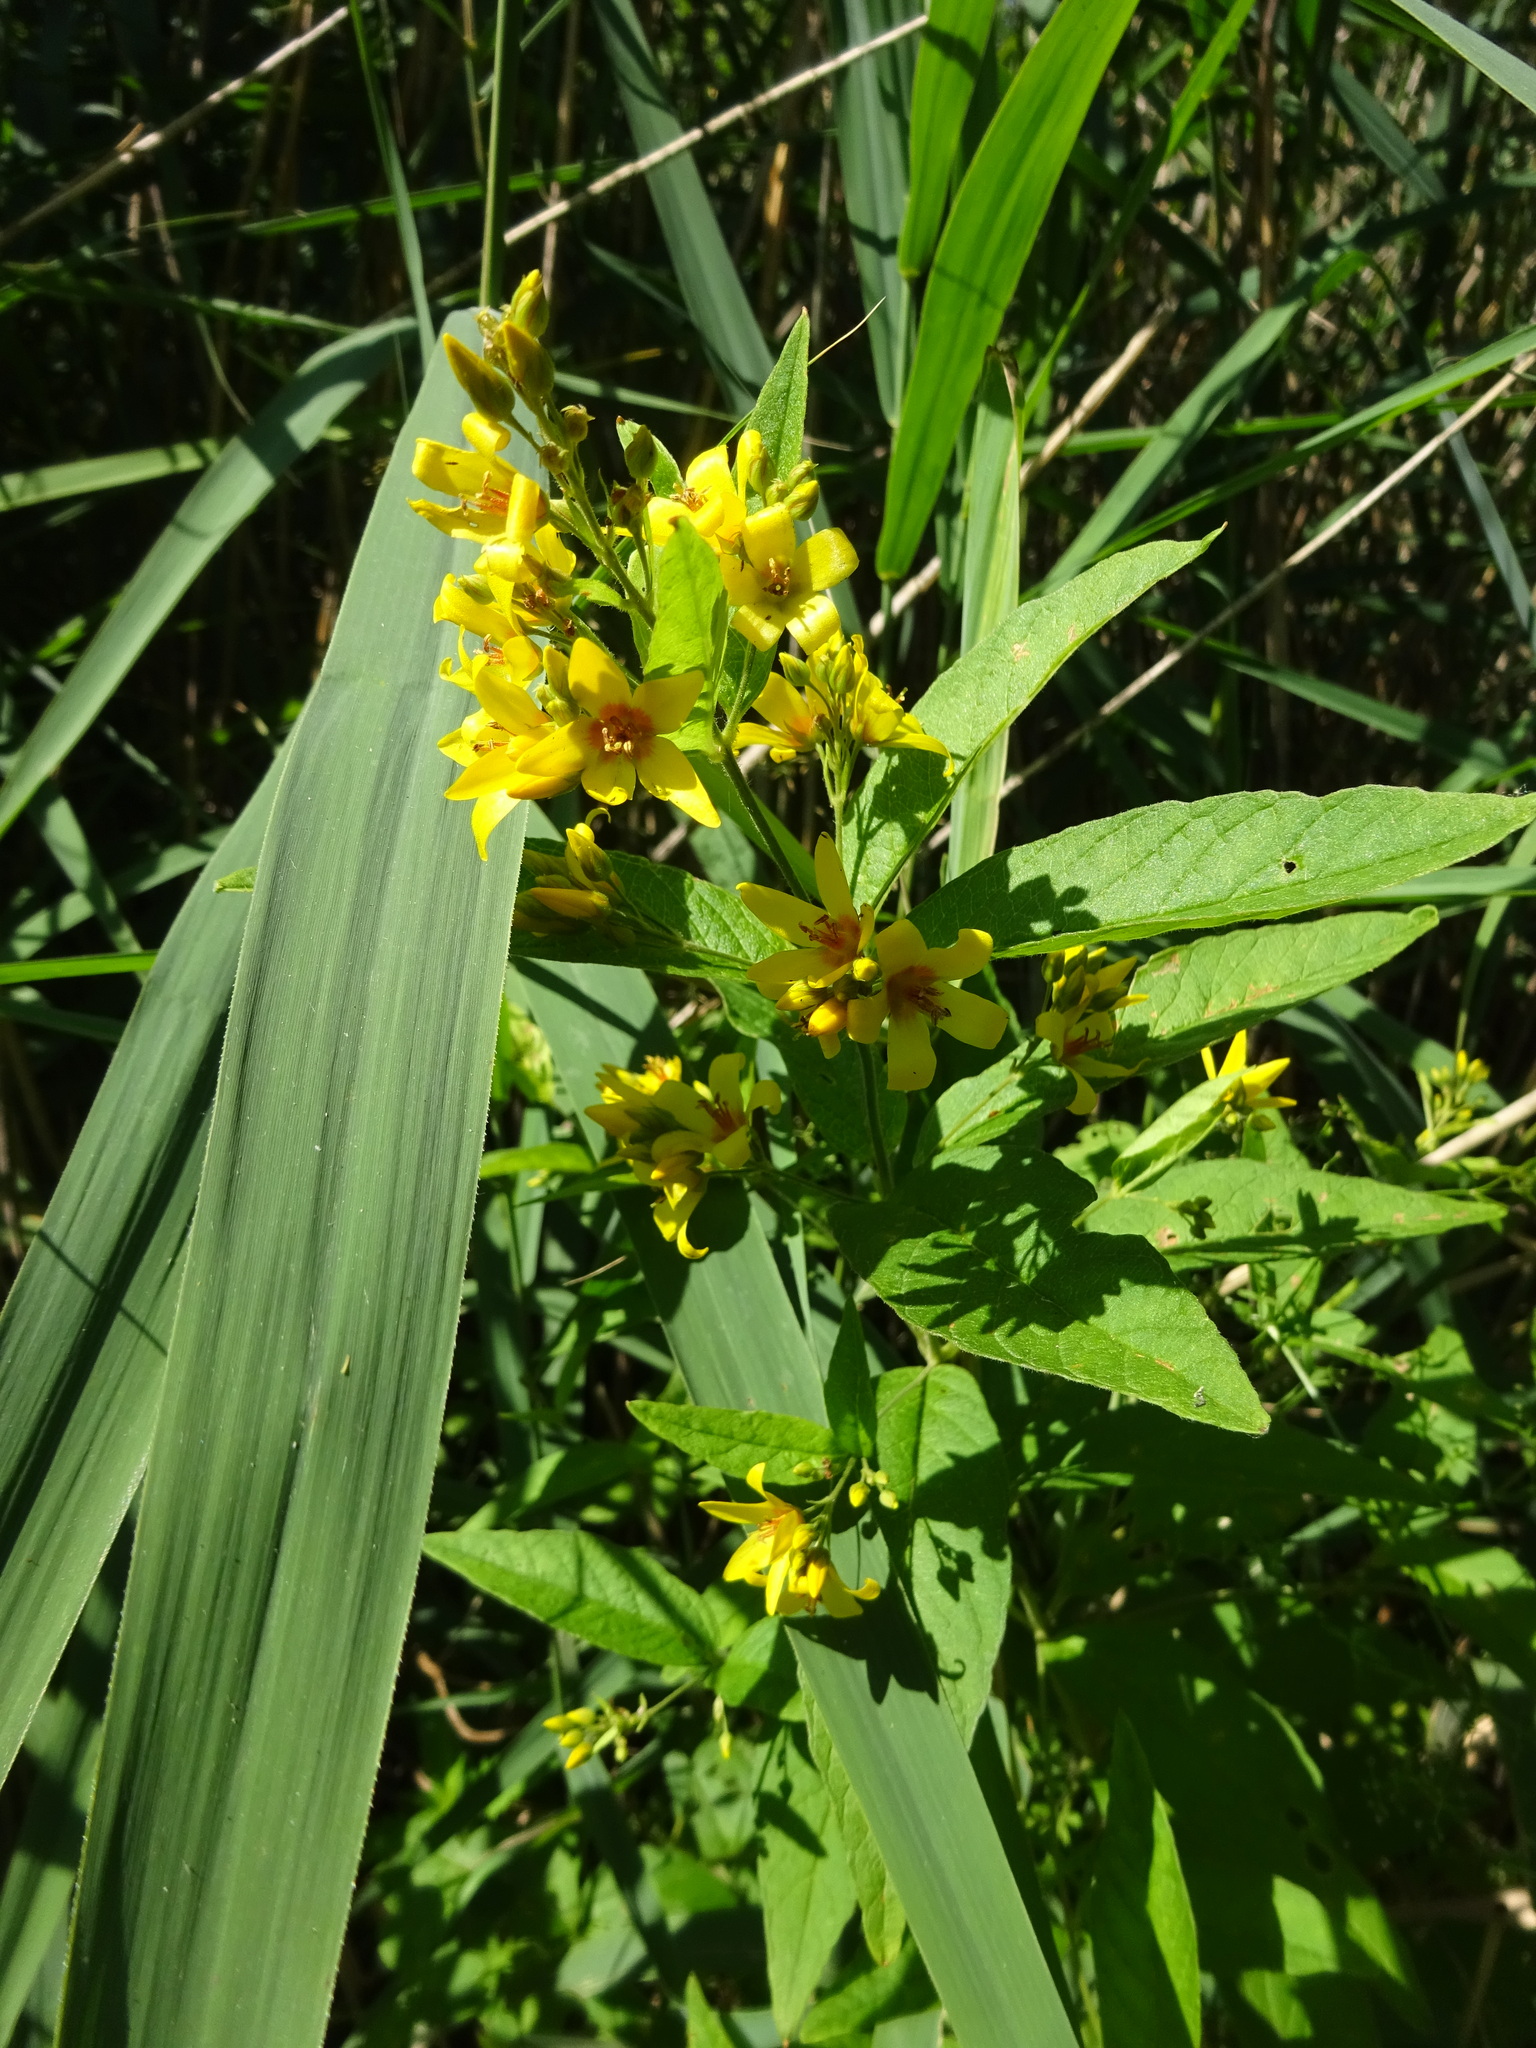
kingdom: Plantae
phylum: Tracheophyta
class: Magnoliopsida
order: Ericales
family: Primulaceae
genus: Lysimachia
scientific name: Lysimachia vulgaris
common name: Yellow loosestrife
